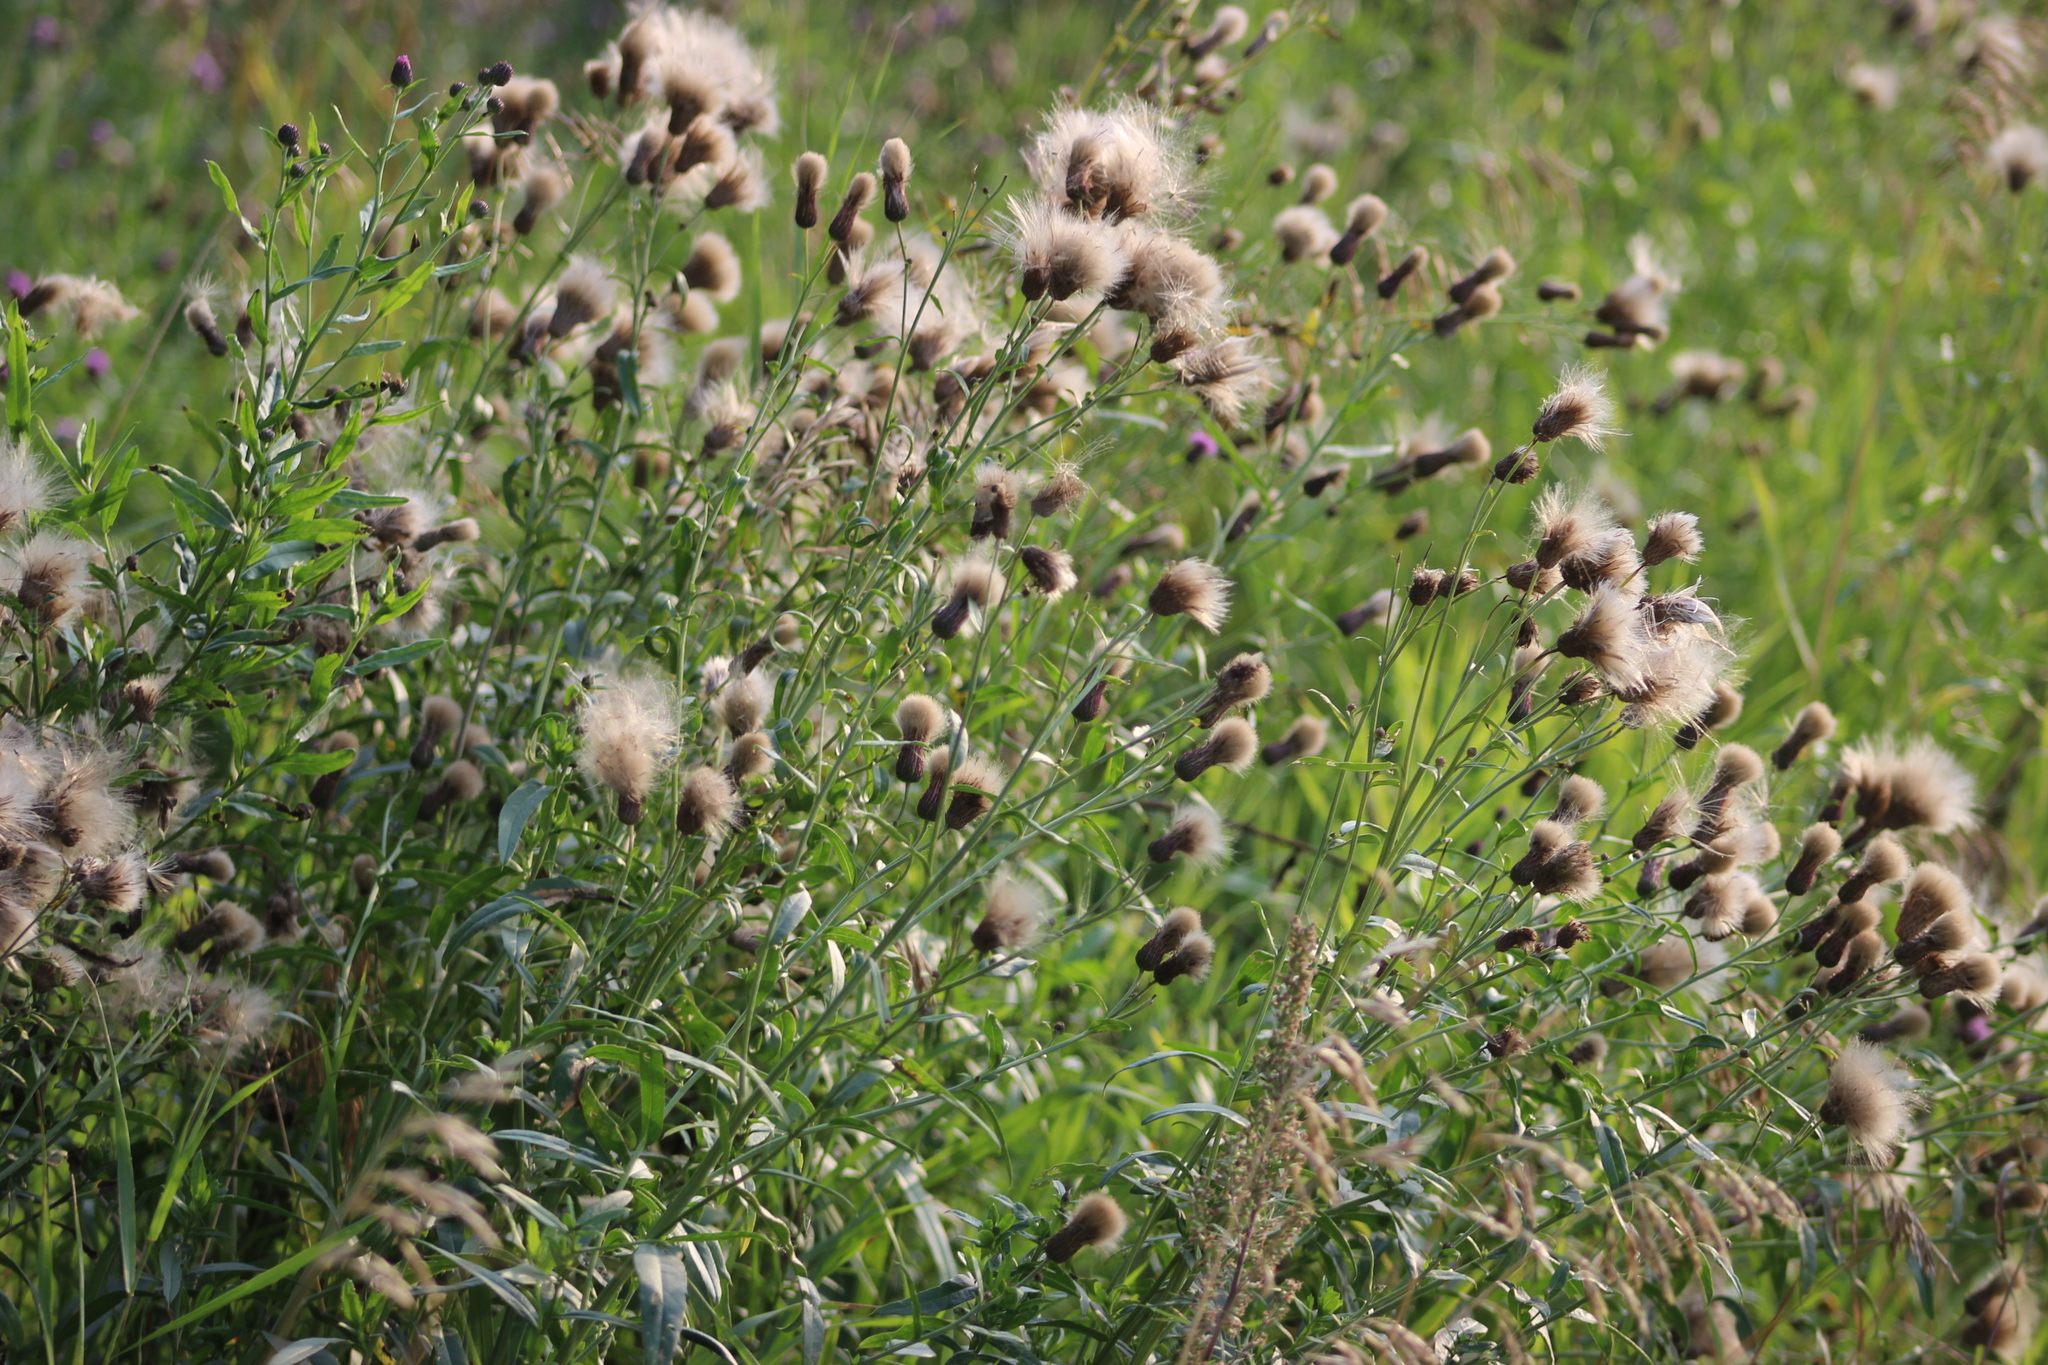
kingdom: Plantae
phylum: Tracheophyta
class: Magnoliopsida
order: Asterales
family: Asteraceae
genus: Cirsium
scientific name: Cirsium arvense
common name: Creeping thistle
